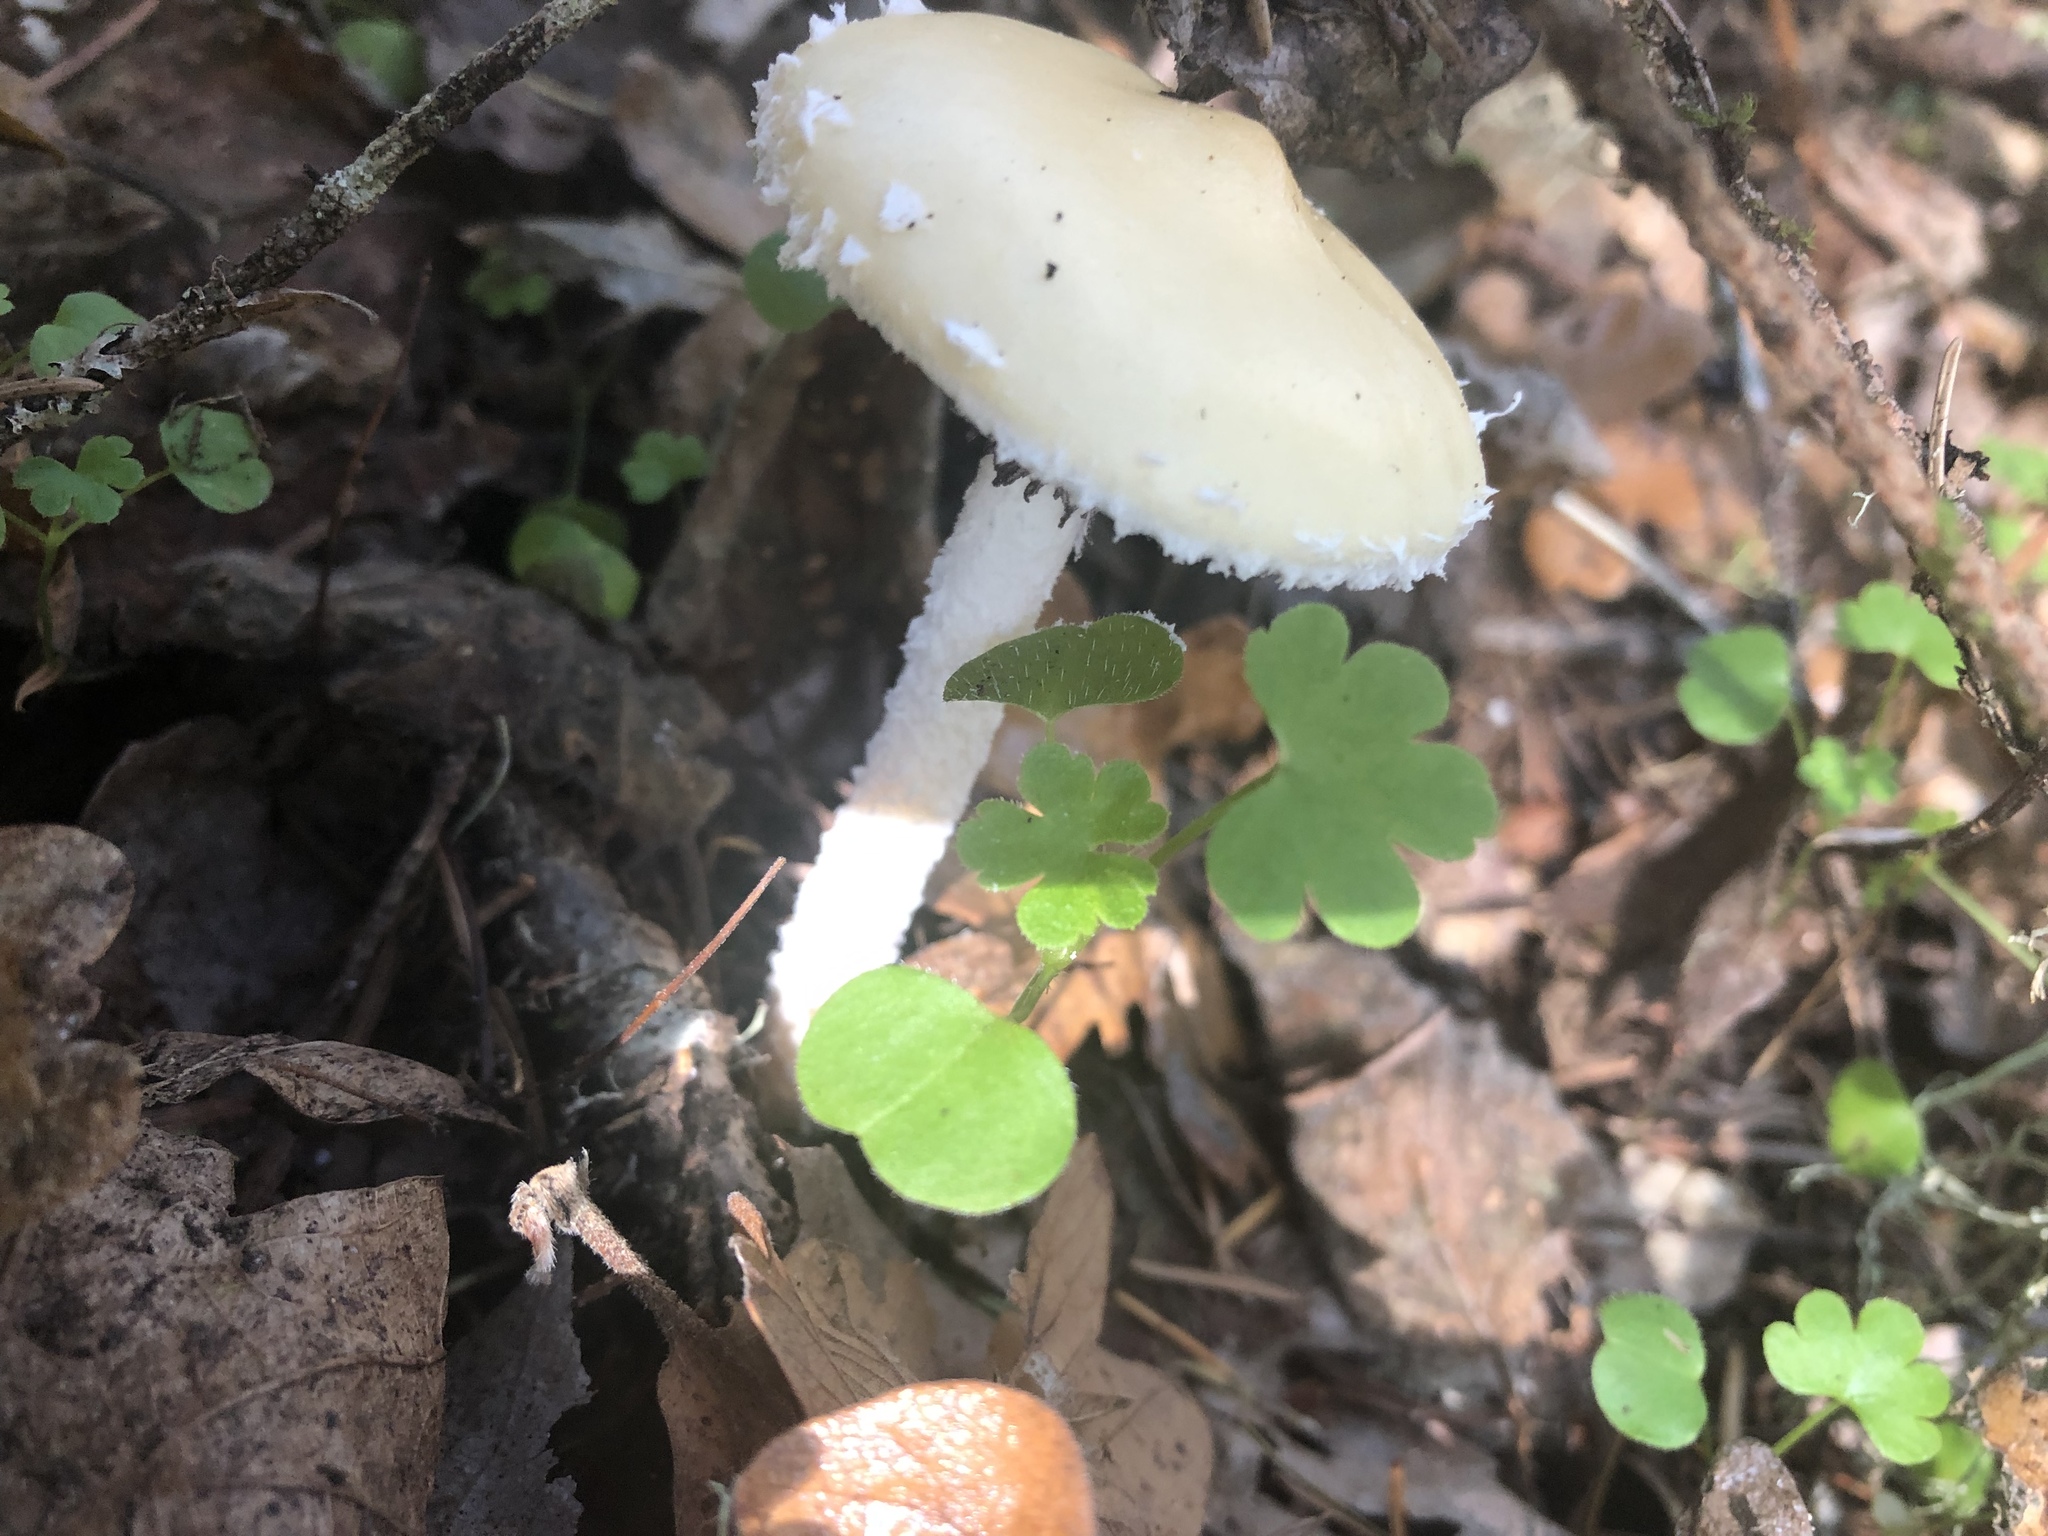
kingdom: Fungi
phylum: Basidiomycota
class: Agaricomycetes
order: Agaricales
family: Strophariaceae
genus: Stropharia
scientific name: Stropharia ambigua
